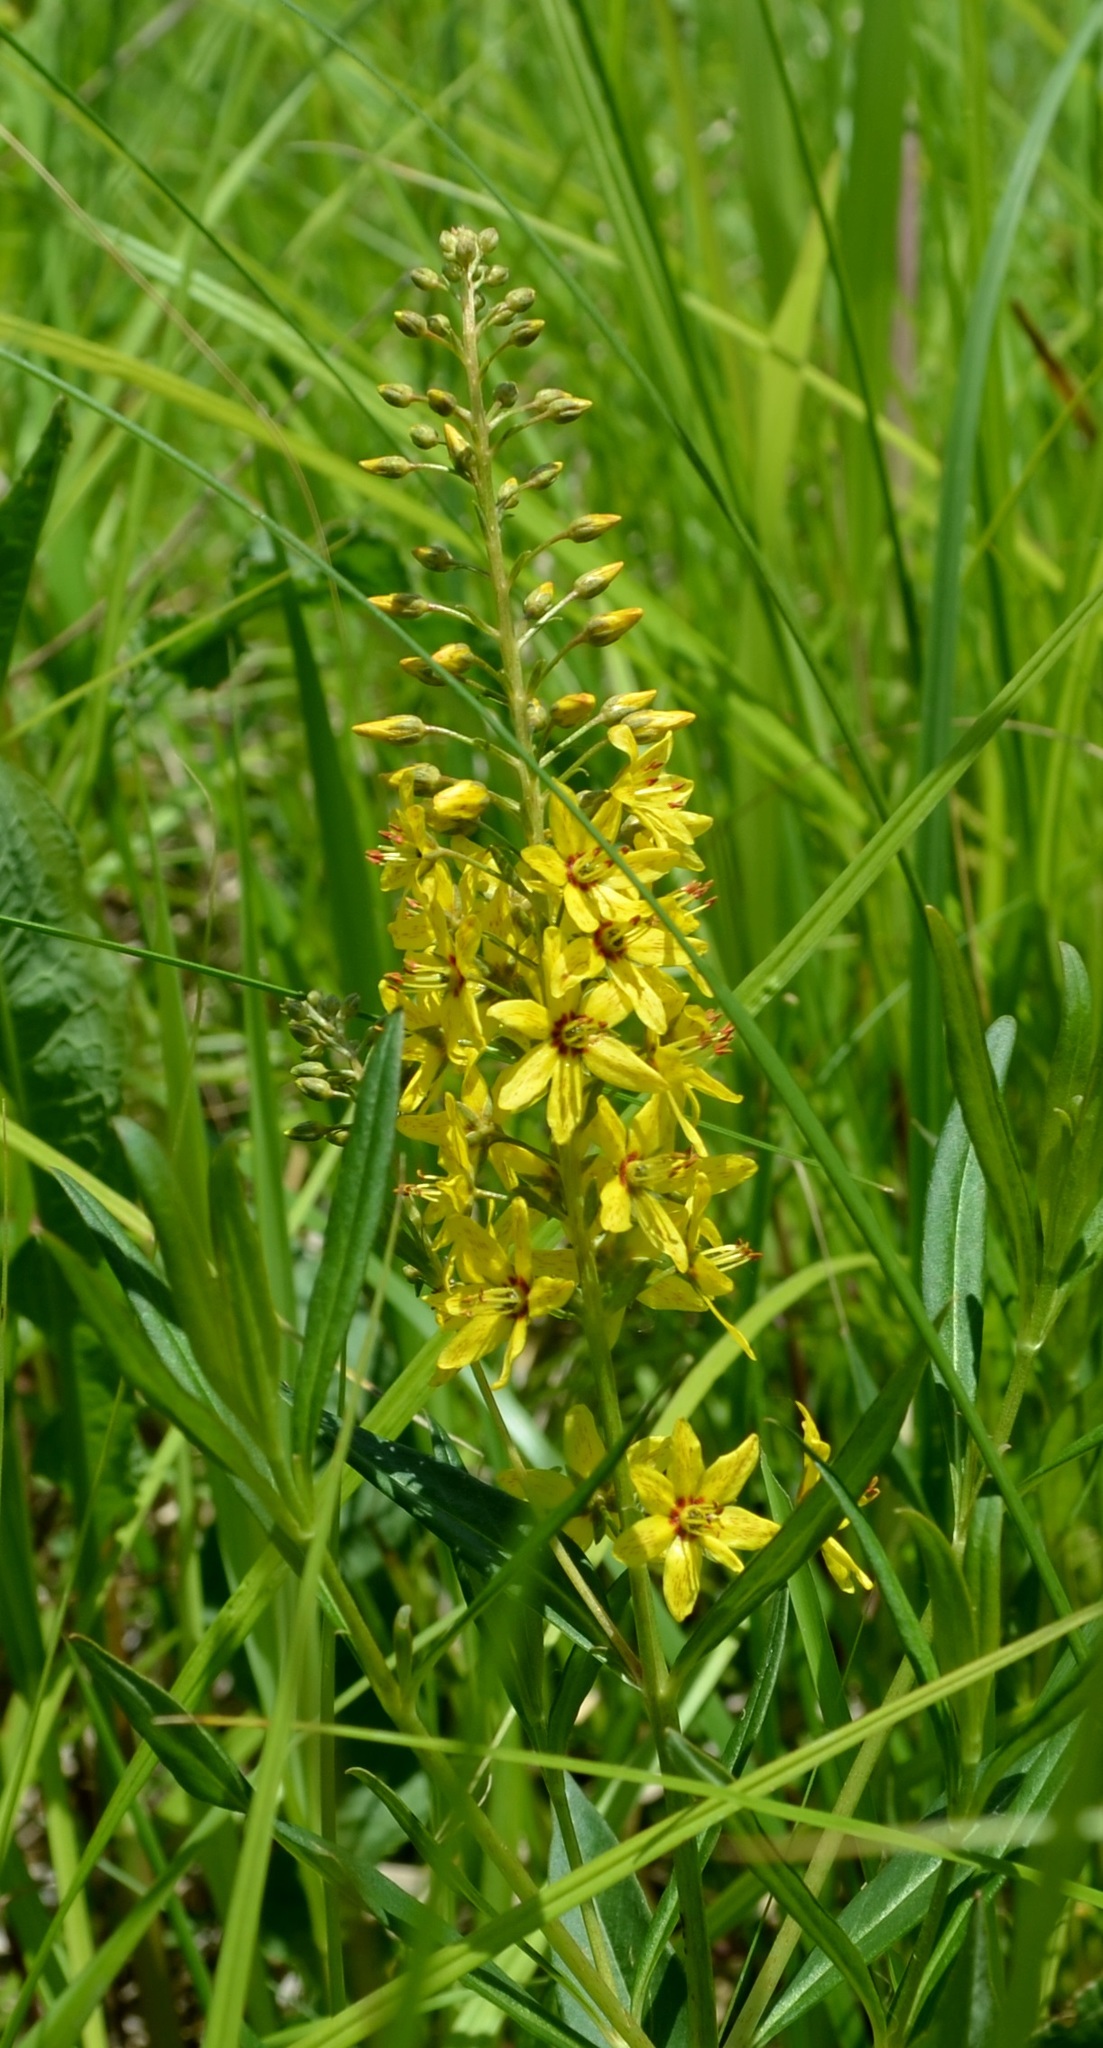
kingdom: Plantae
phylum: Tracheophyta
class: Magnoliopsida
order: Ericales
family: Primulaceae
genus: Lysimachia
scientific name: Lysimachia terrestris
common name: Lake loosestrife
